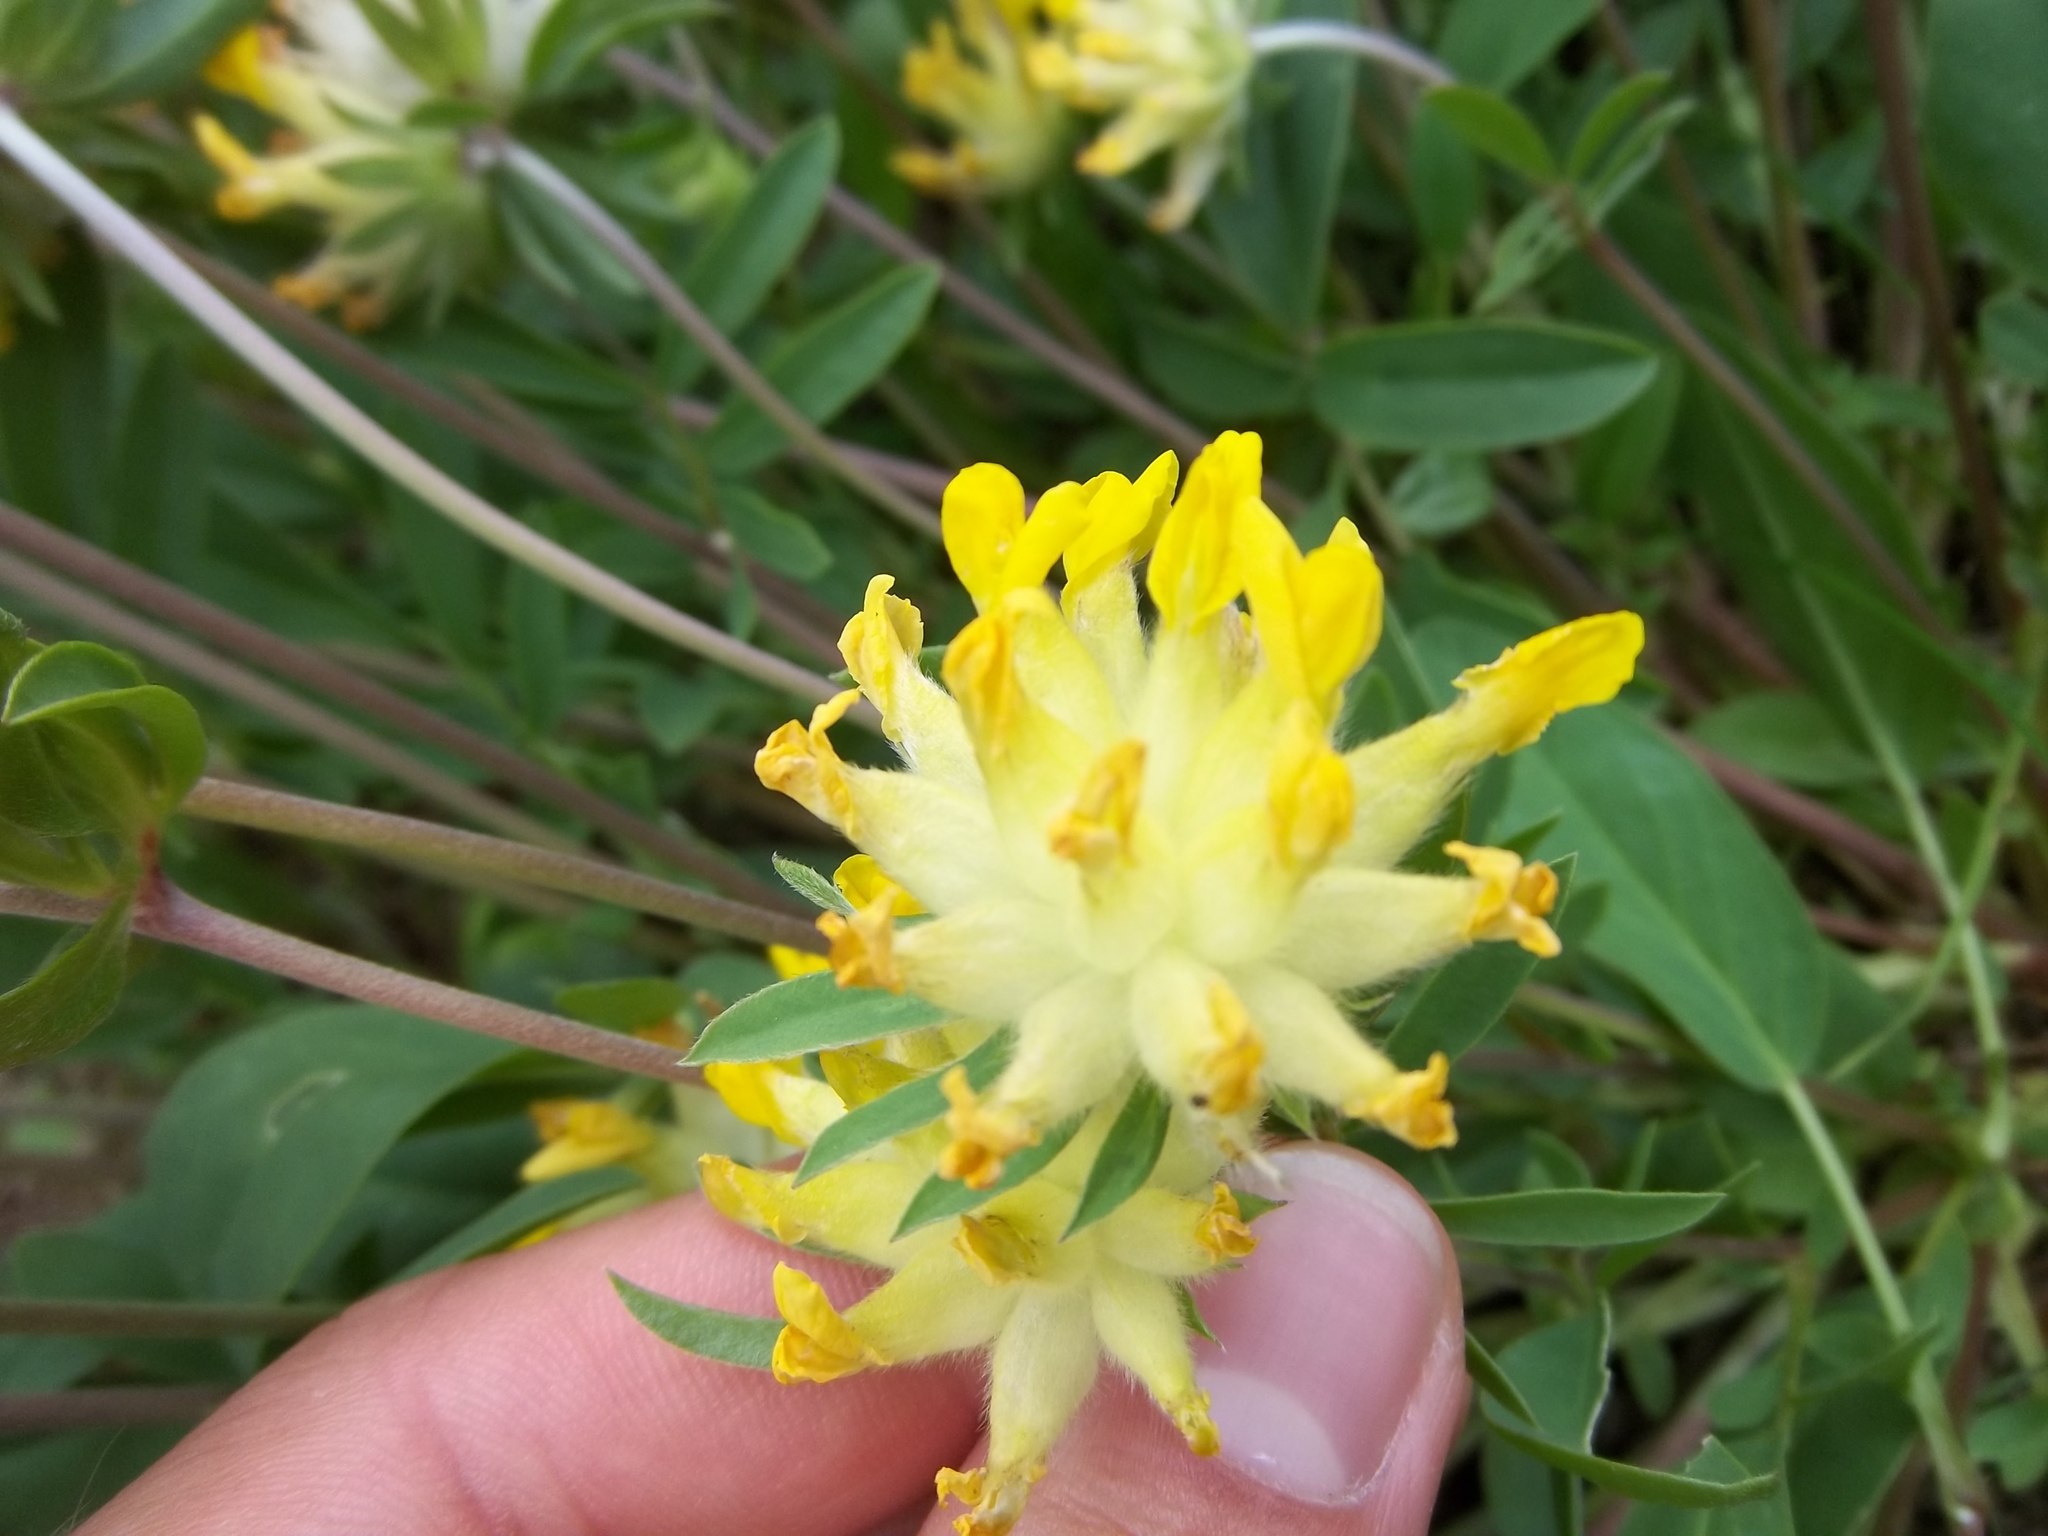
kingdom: Plantae
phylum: Tracheophyta
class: Magnoliopsida
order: Fabales
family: Fabaceae
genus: Anthyllis
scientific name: Anthyllis vulneraria
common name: Kidney vetch
